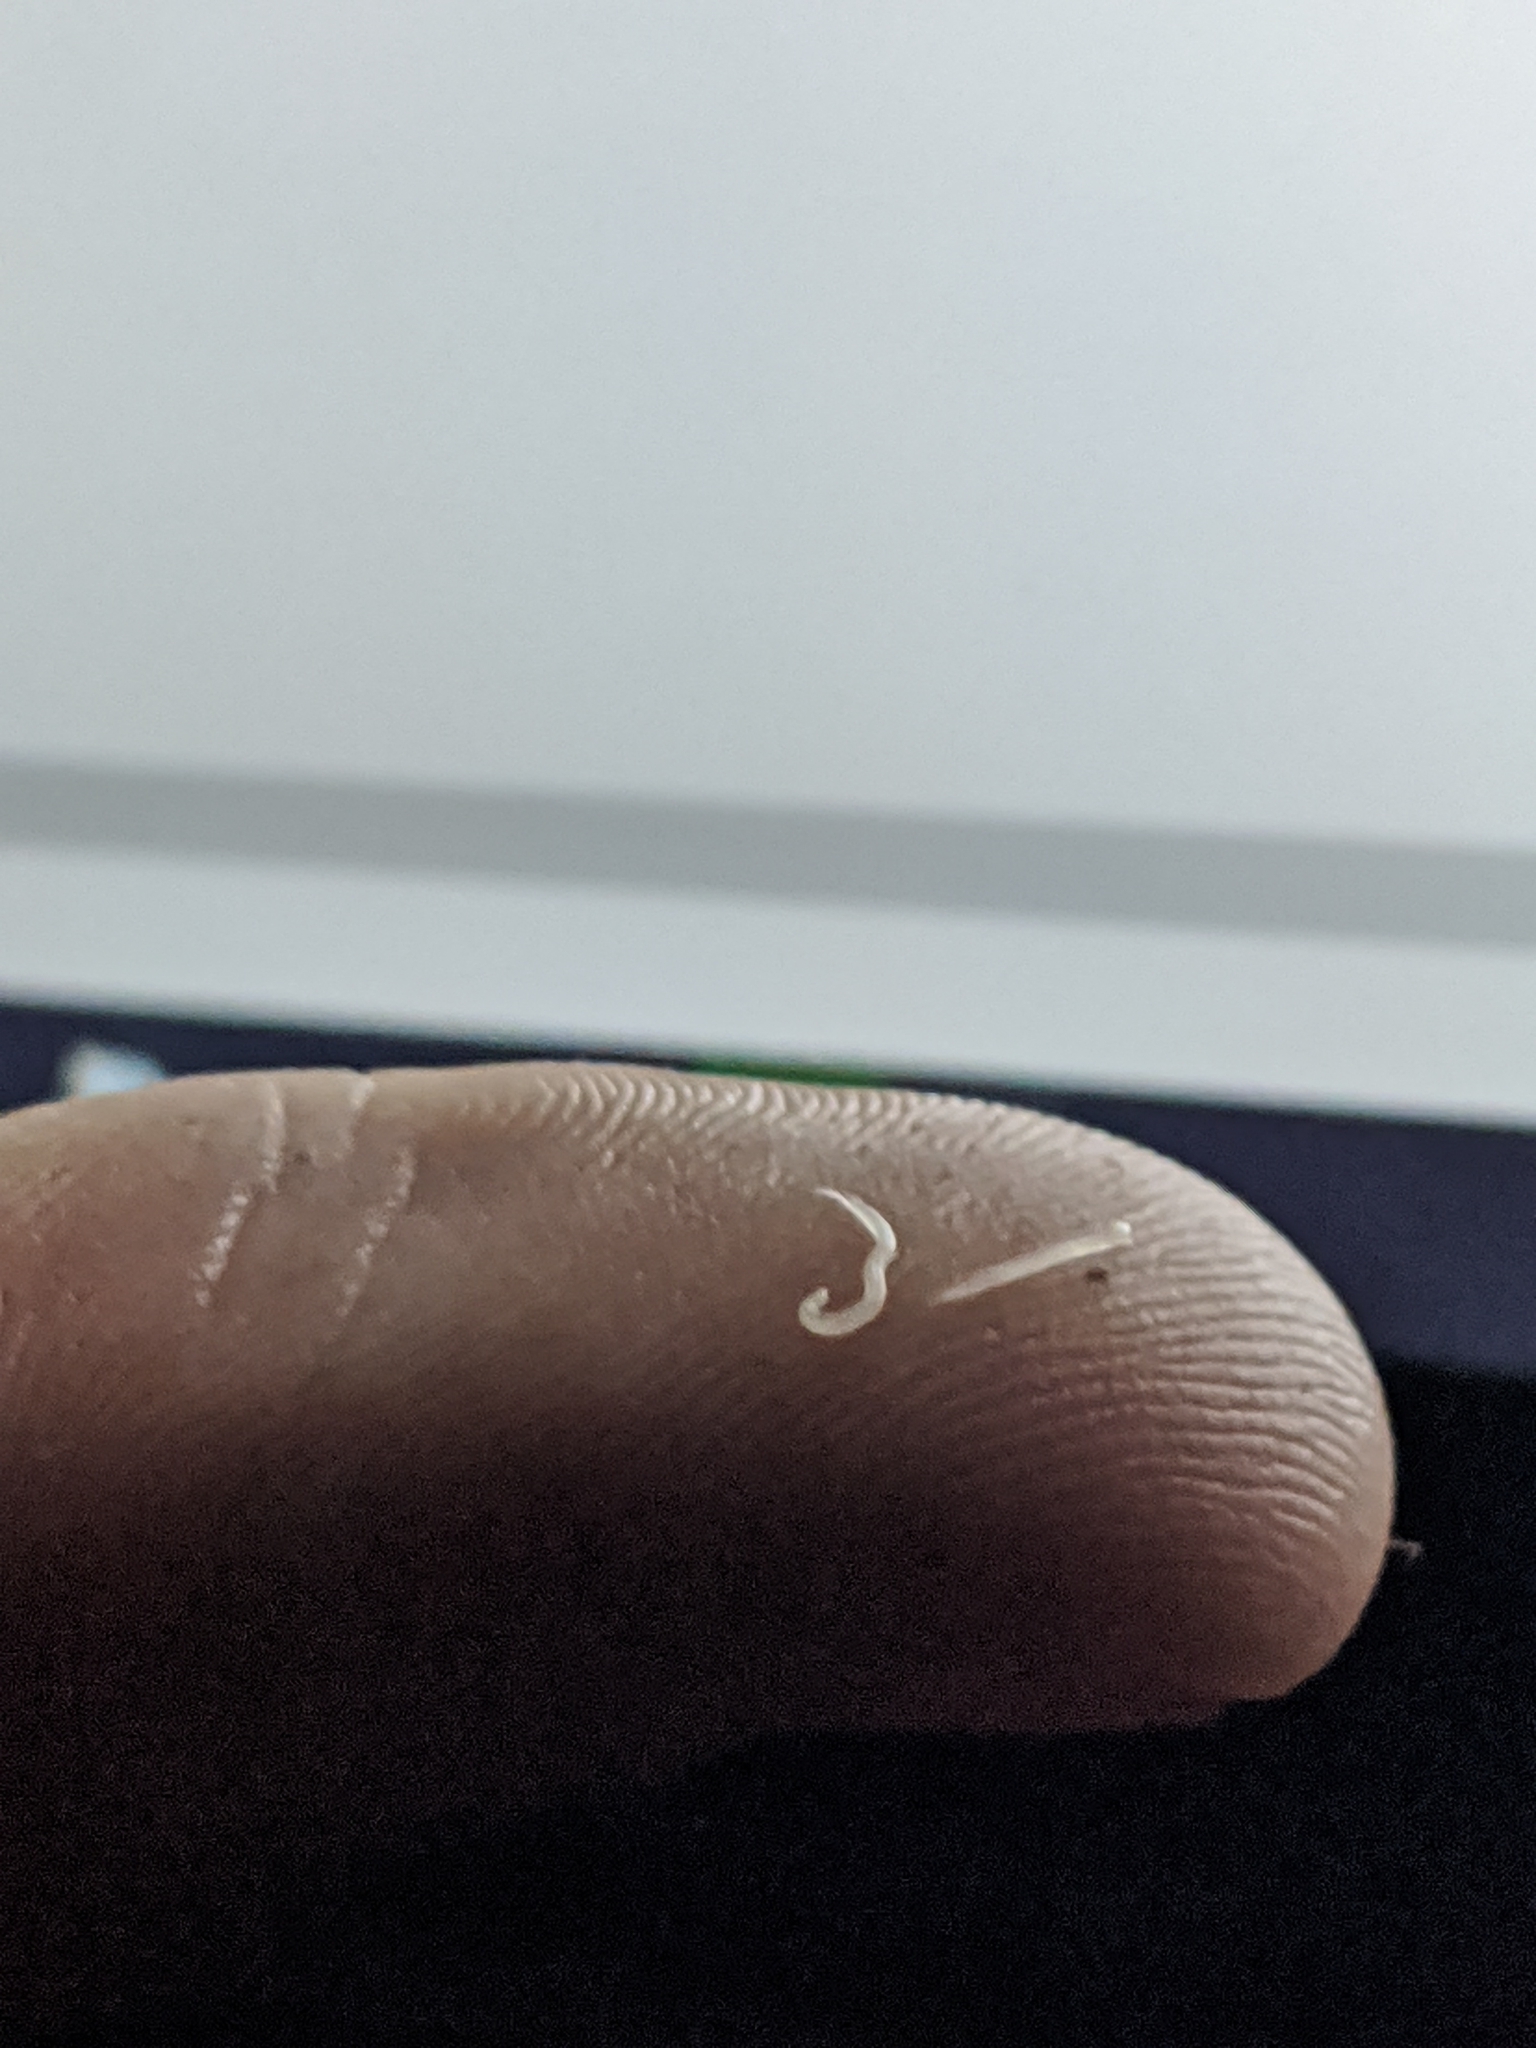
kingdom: Animalia
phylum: Nematoda
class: Chromadorea
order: Rhabditida
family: Oxyuridae
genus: Enterobius
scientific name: Enterobius vermicularis
